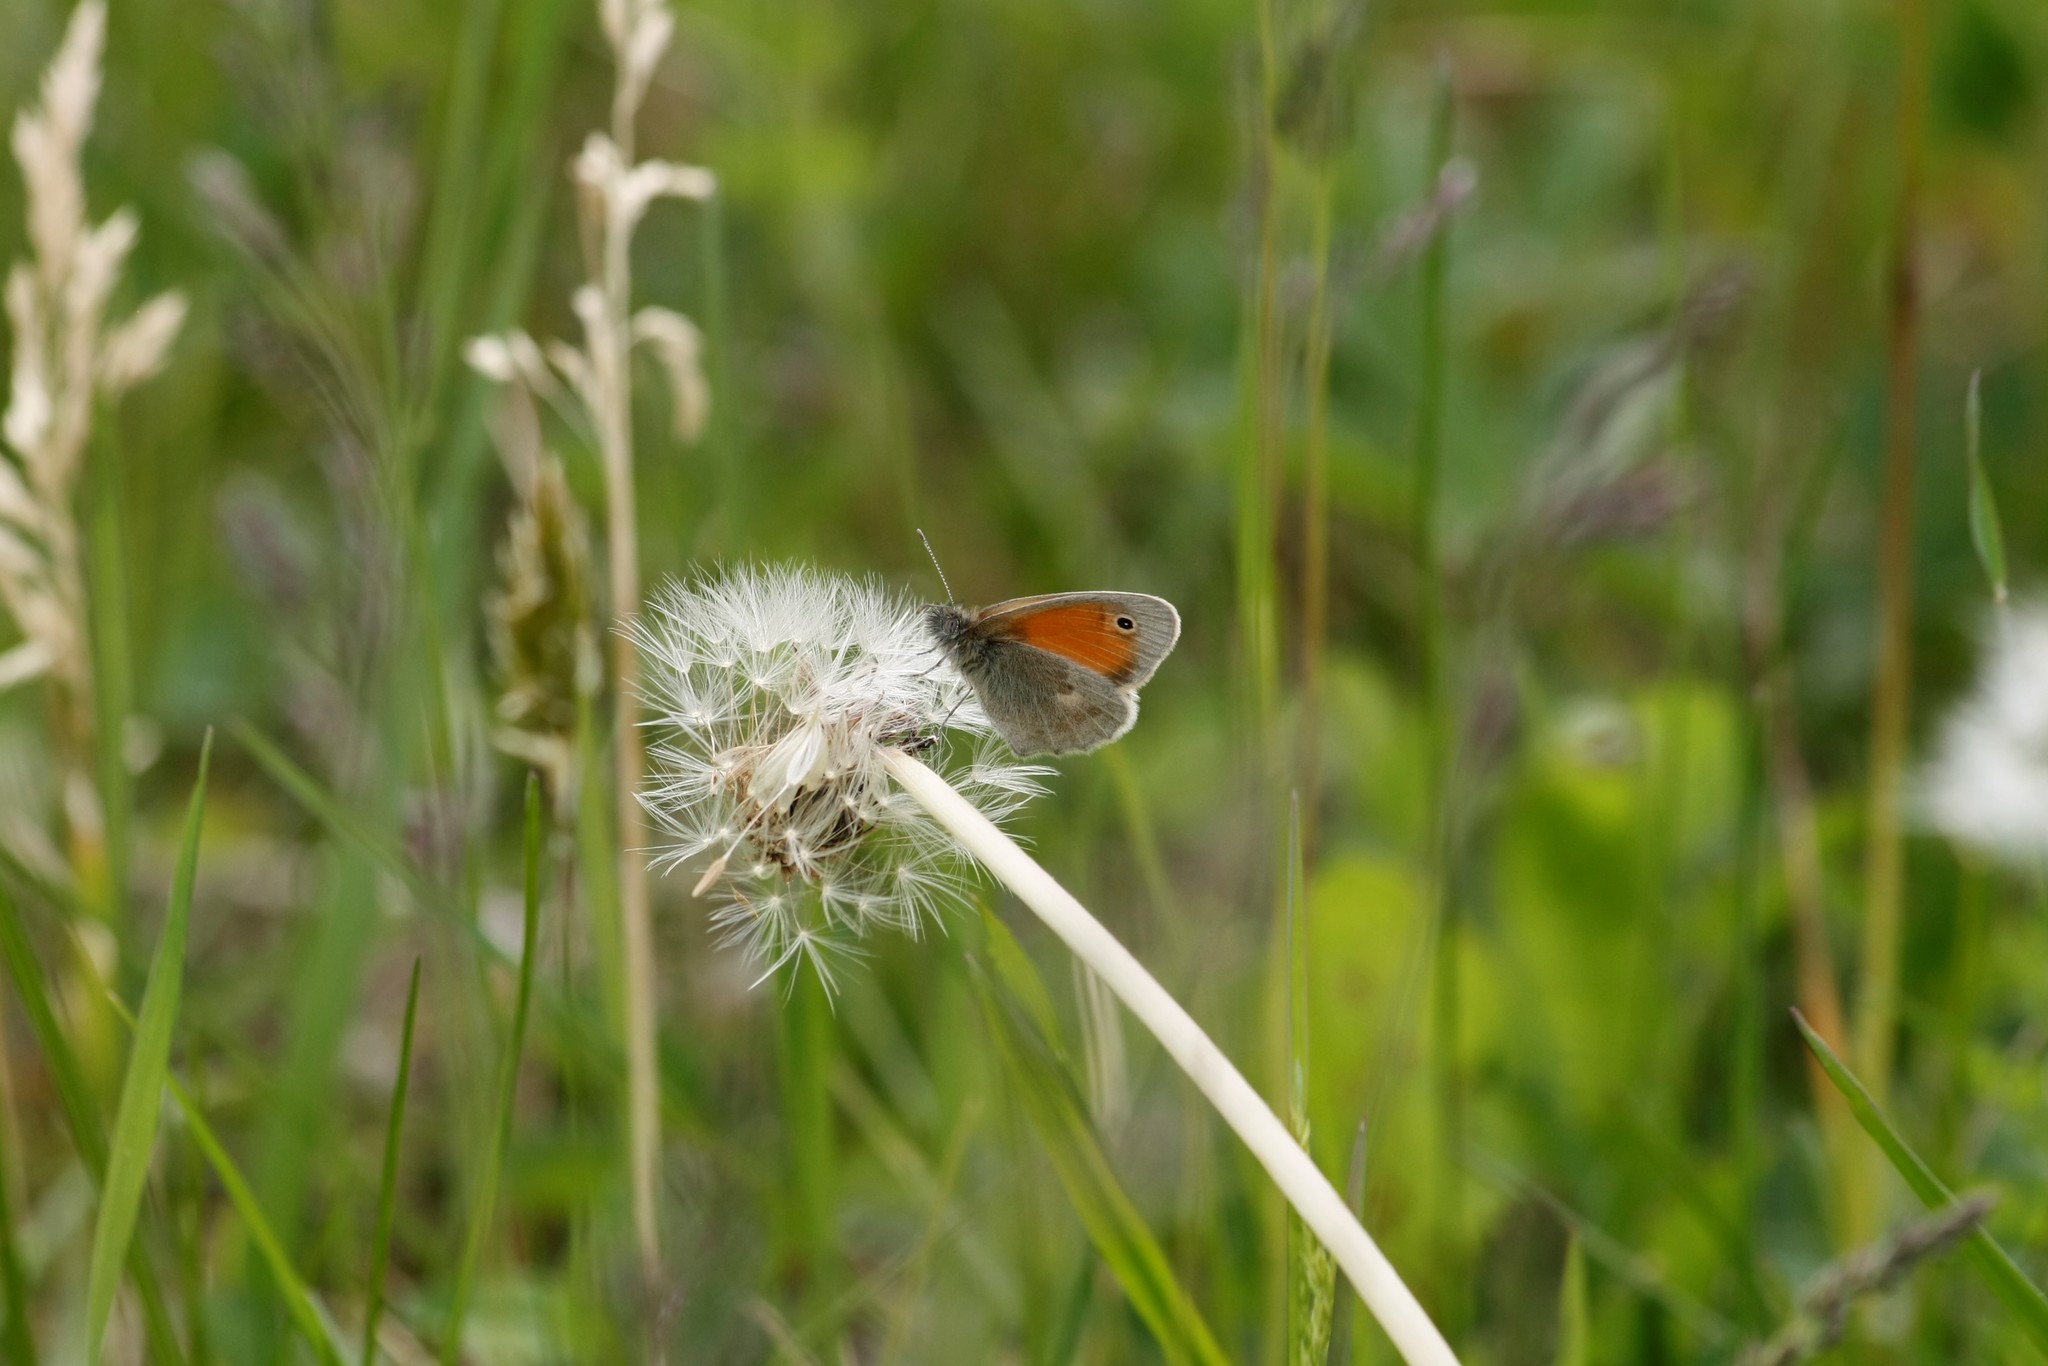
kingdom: Animalia
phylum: Arthropoda
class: Insecta
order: Lepidoptera
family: Nymphalidae
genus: Coenonympha
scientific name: Coenonympha pamphilus
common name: Small heath
